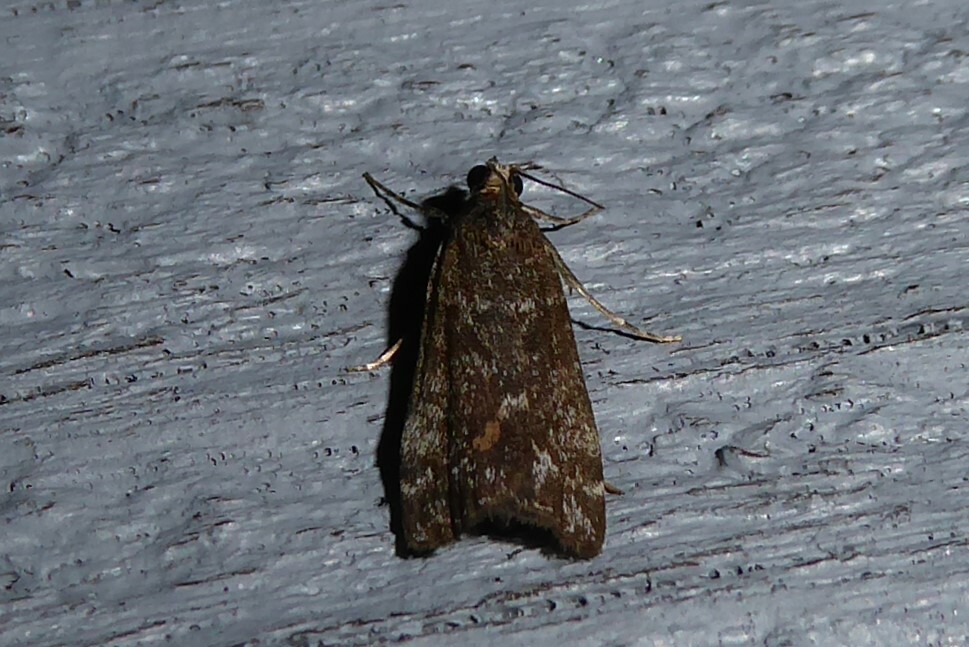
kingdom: Animalia
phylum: Arthropoda
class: Insecta
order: Lepidoptera
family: Crambidae
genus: Eudonia
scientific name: Eudonia submarginalis
